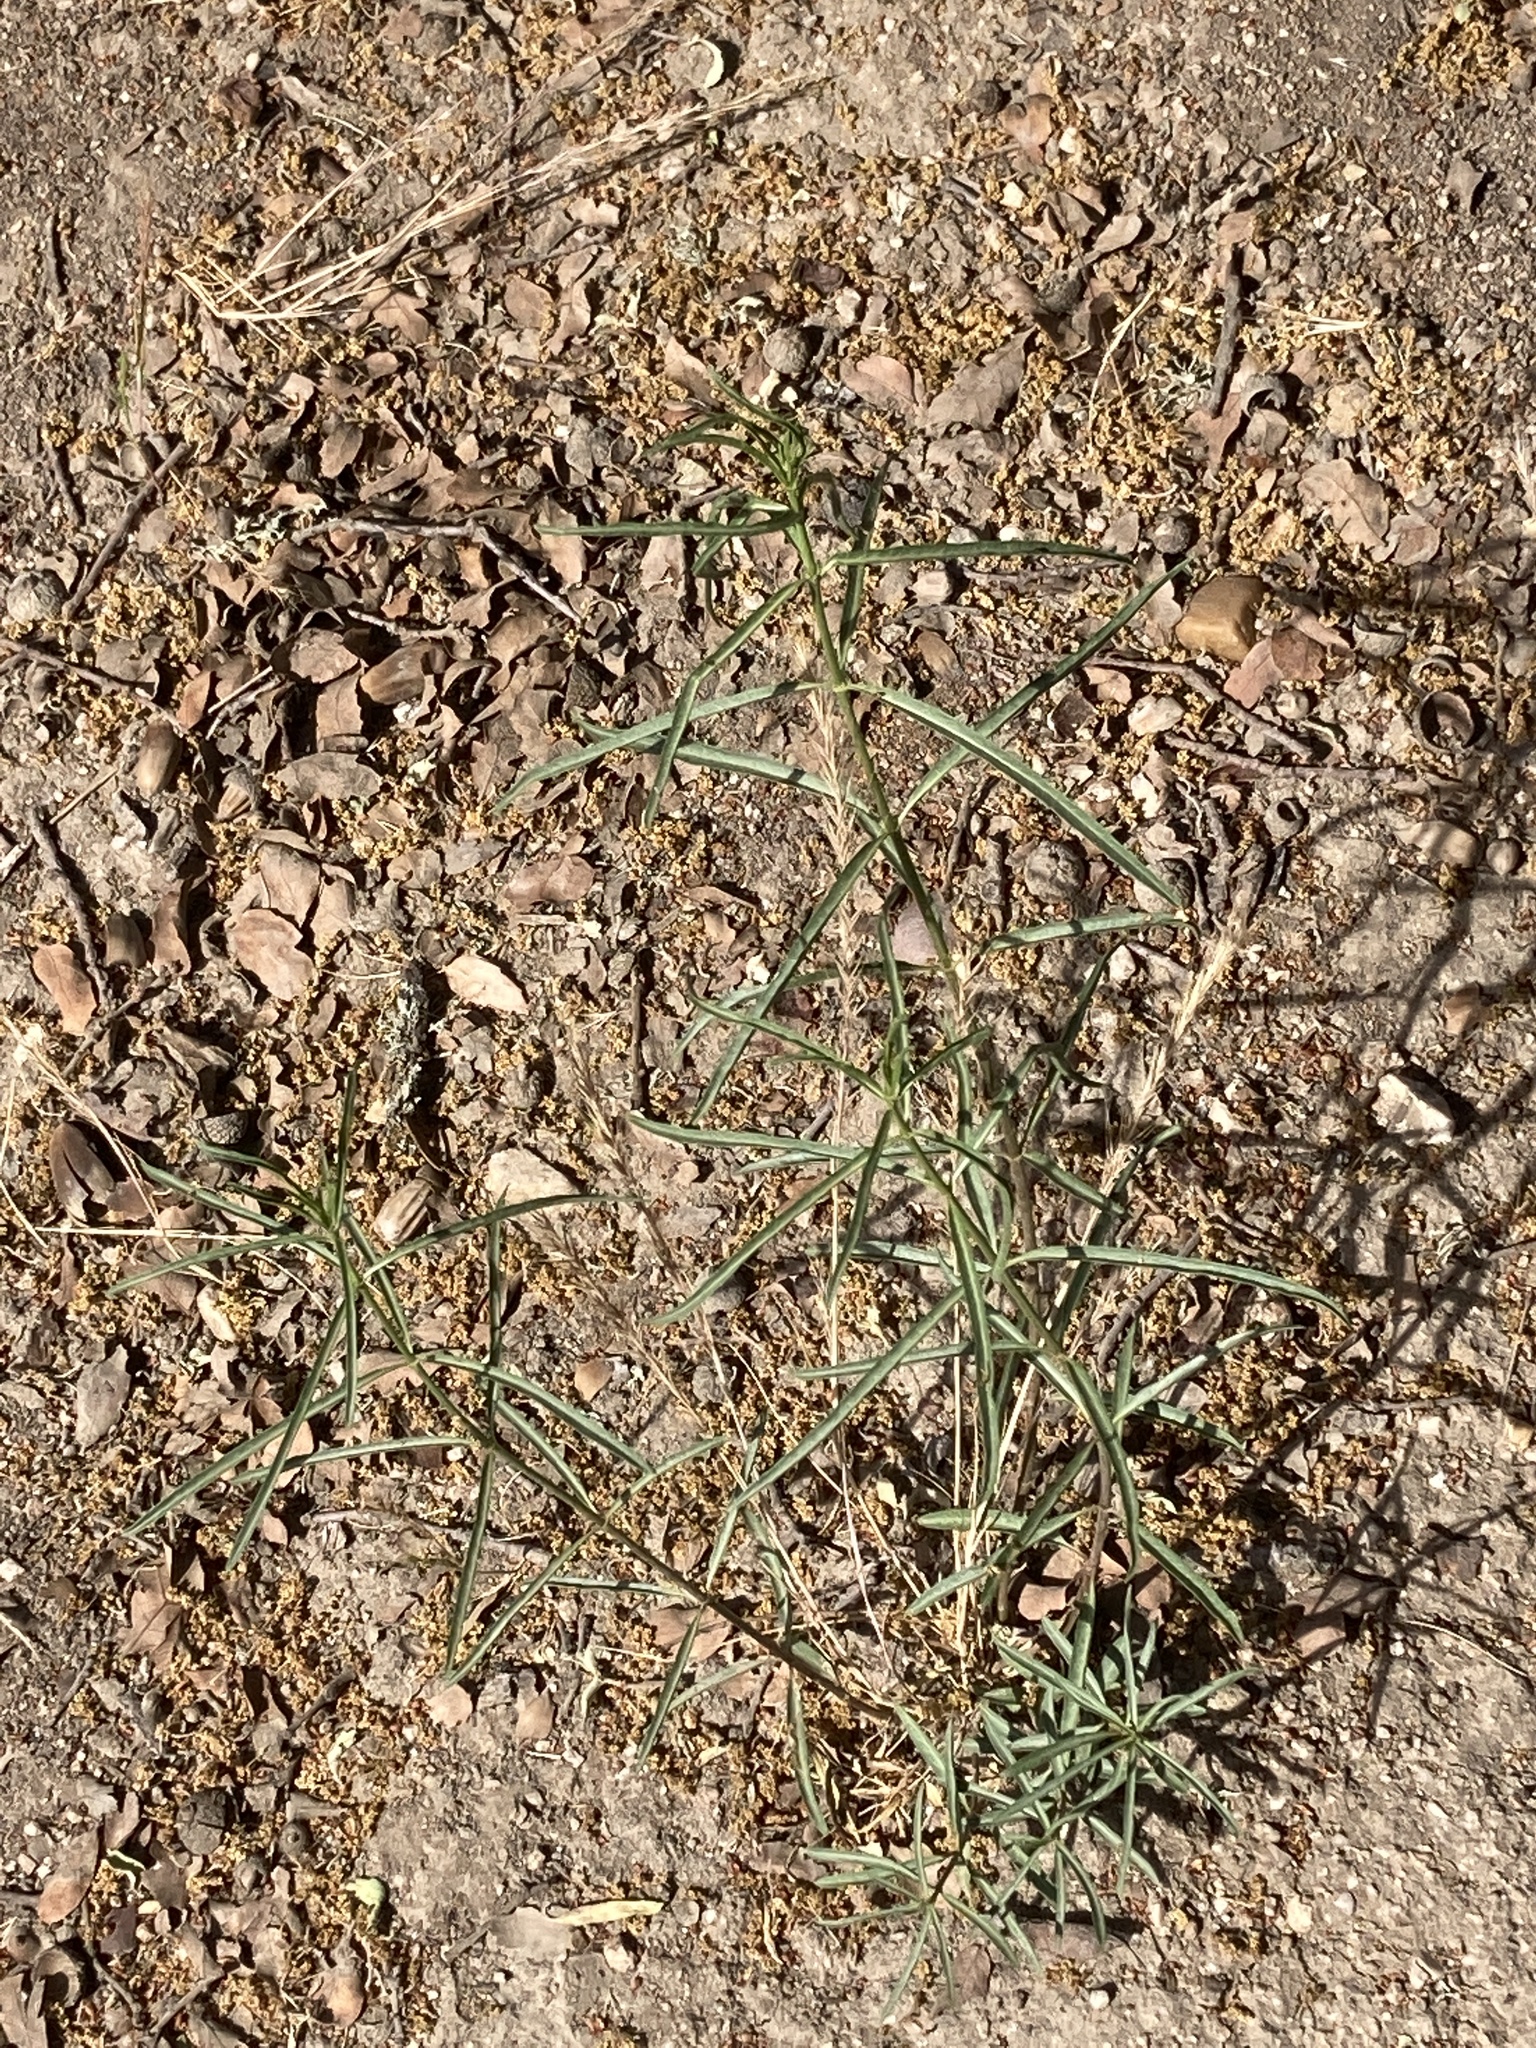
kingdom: Plantae
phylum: Tracheophyta
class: Magnoliopsida
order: Gentianales
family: Apocynaceae
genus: Asclepias
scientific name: Asclepias fascicularis
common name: Mexican milkweed
